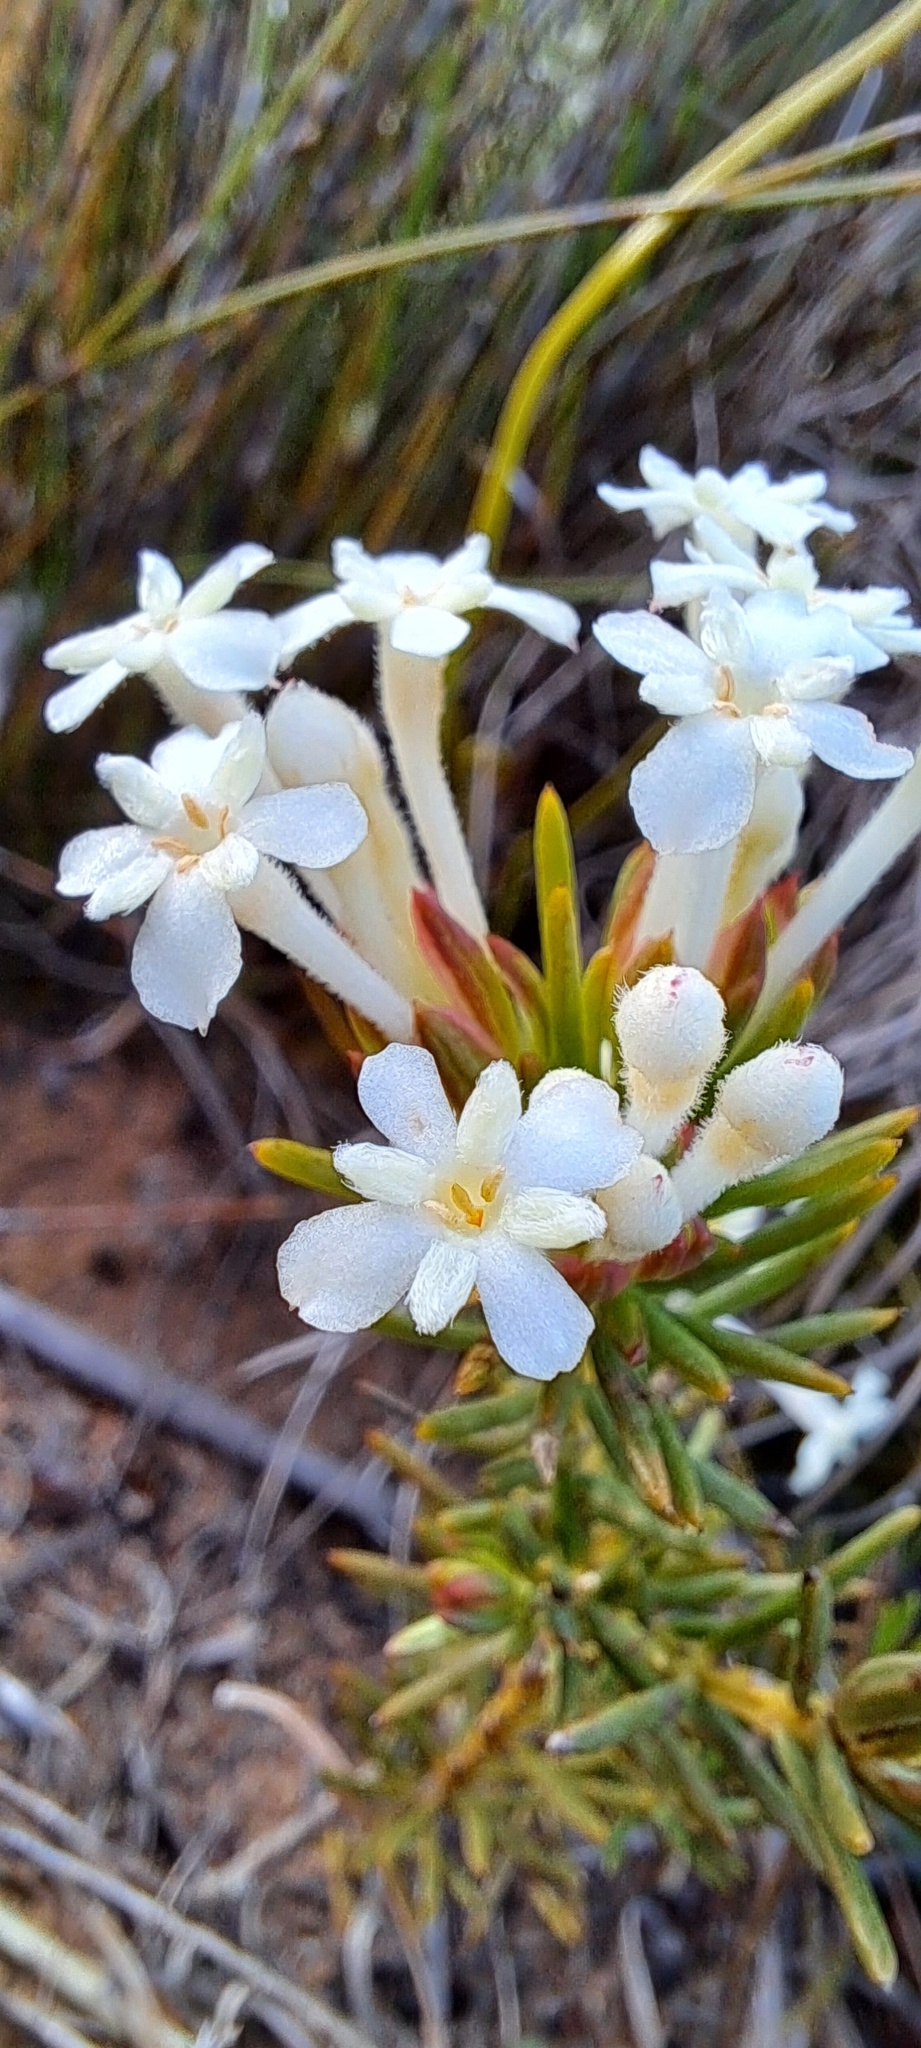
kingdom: Plantae
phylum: Tracheophyta
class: Magnoliopsida
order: Malvales
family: Thymelaeaceae
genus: Gnidia
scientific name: Gnidia pinifolia
